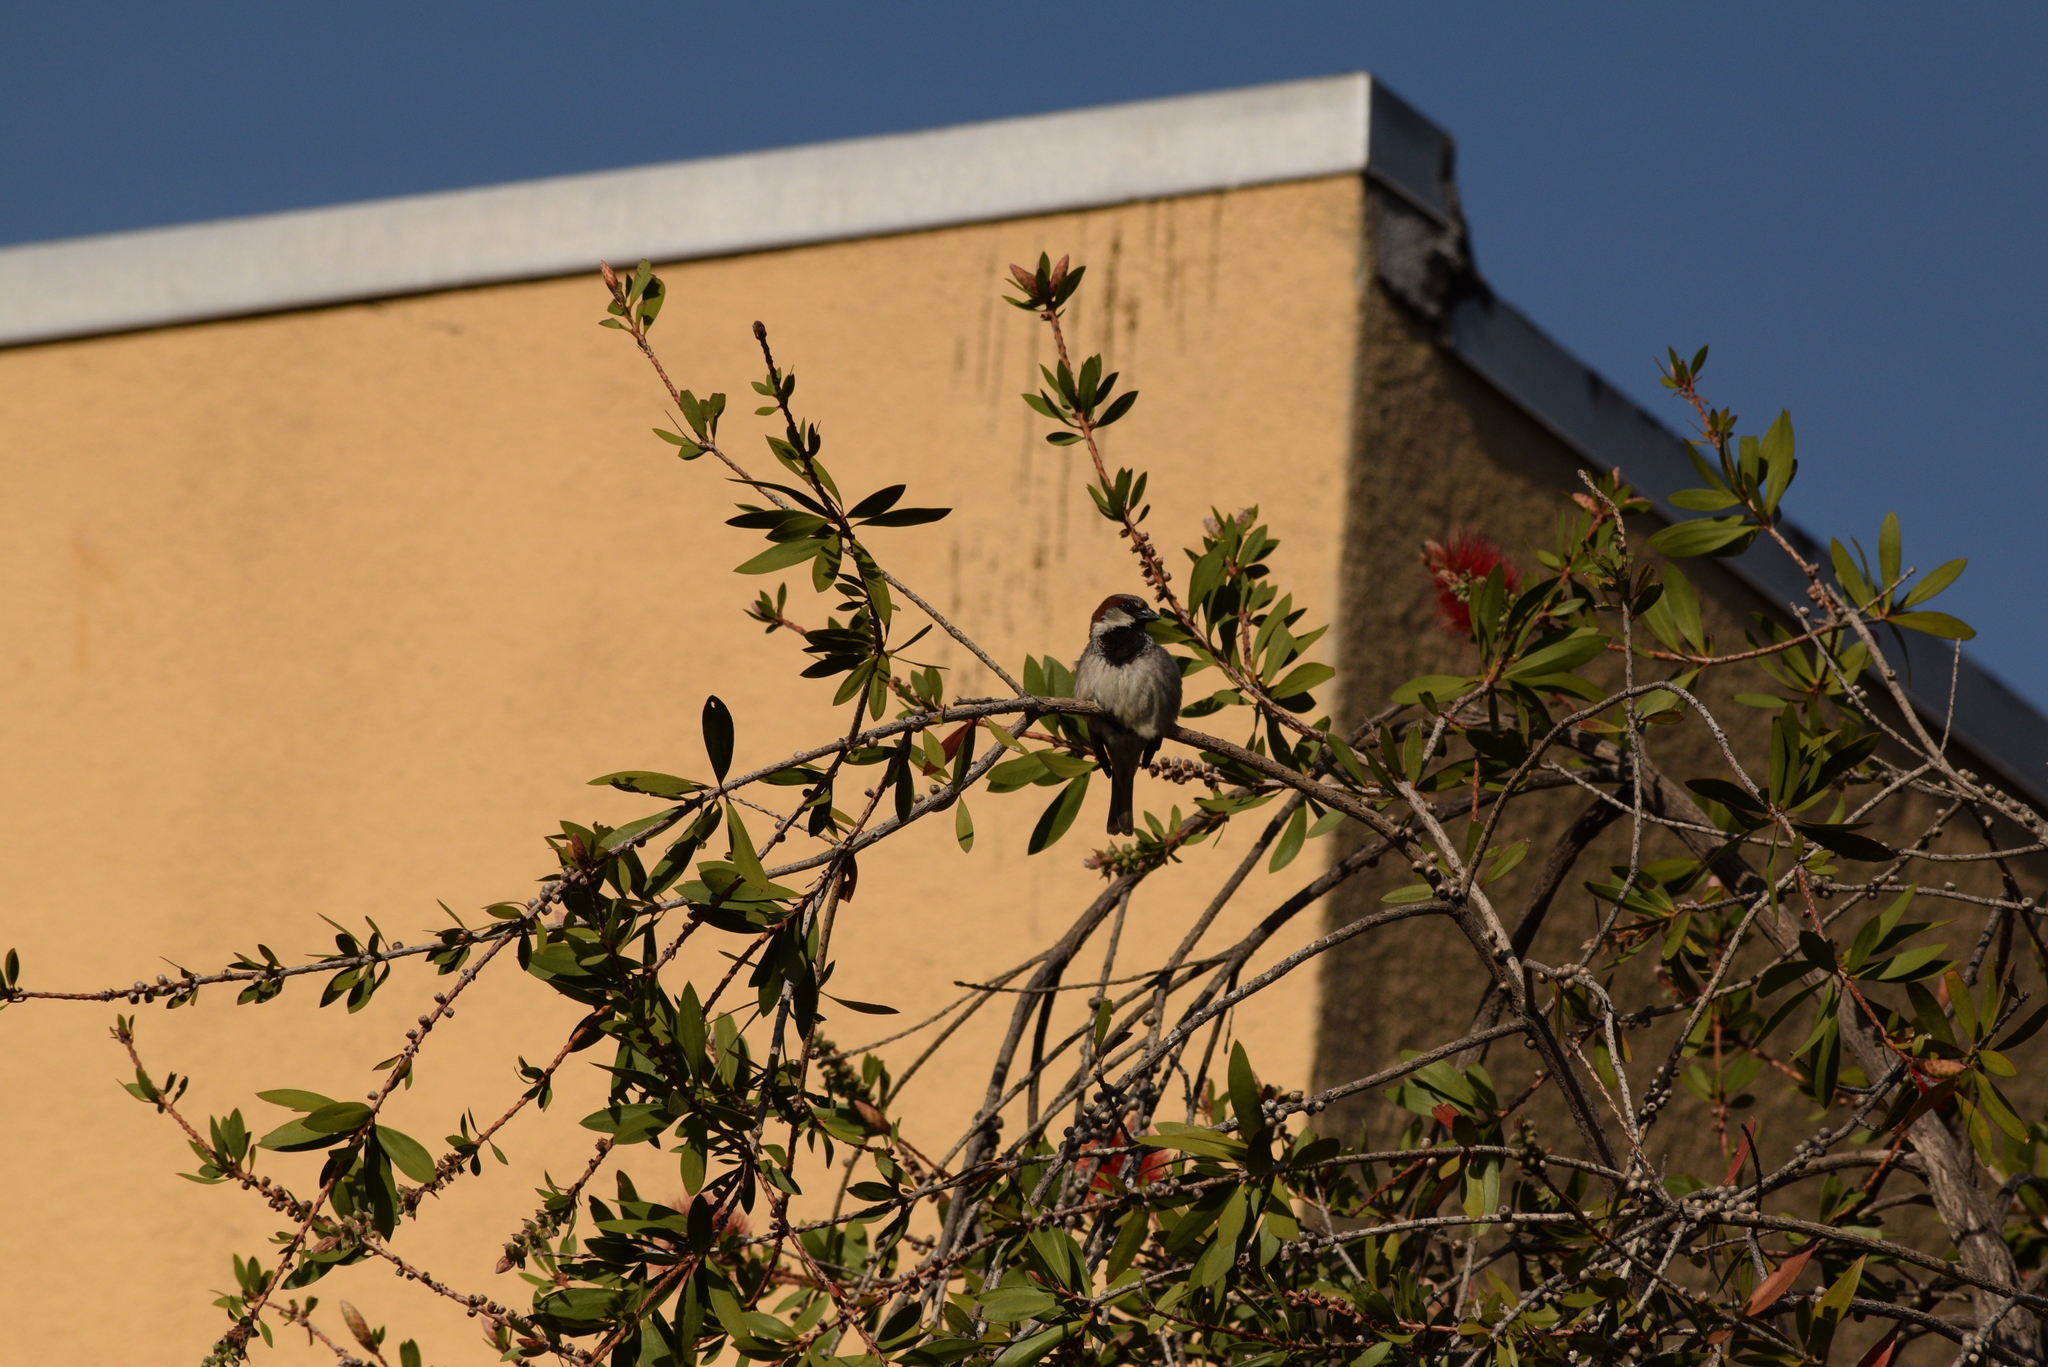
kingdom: Animalia
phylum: Chordata
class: Aves
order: Passeriformes
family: Passeridae
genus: Passer
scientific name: Passer domesticus
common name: House sparrow
